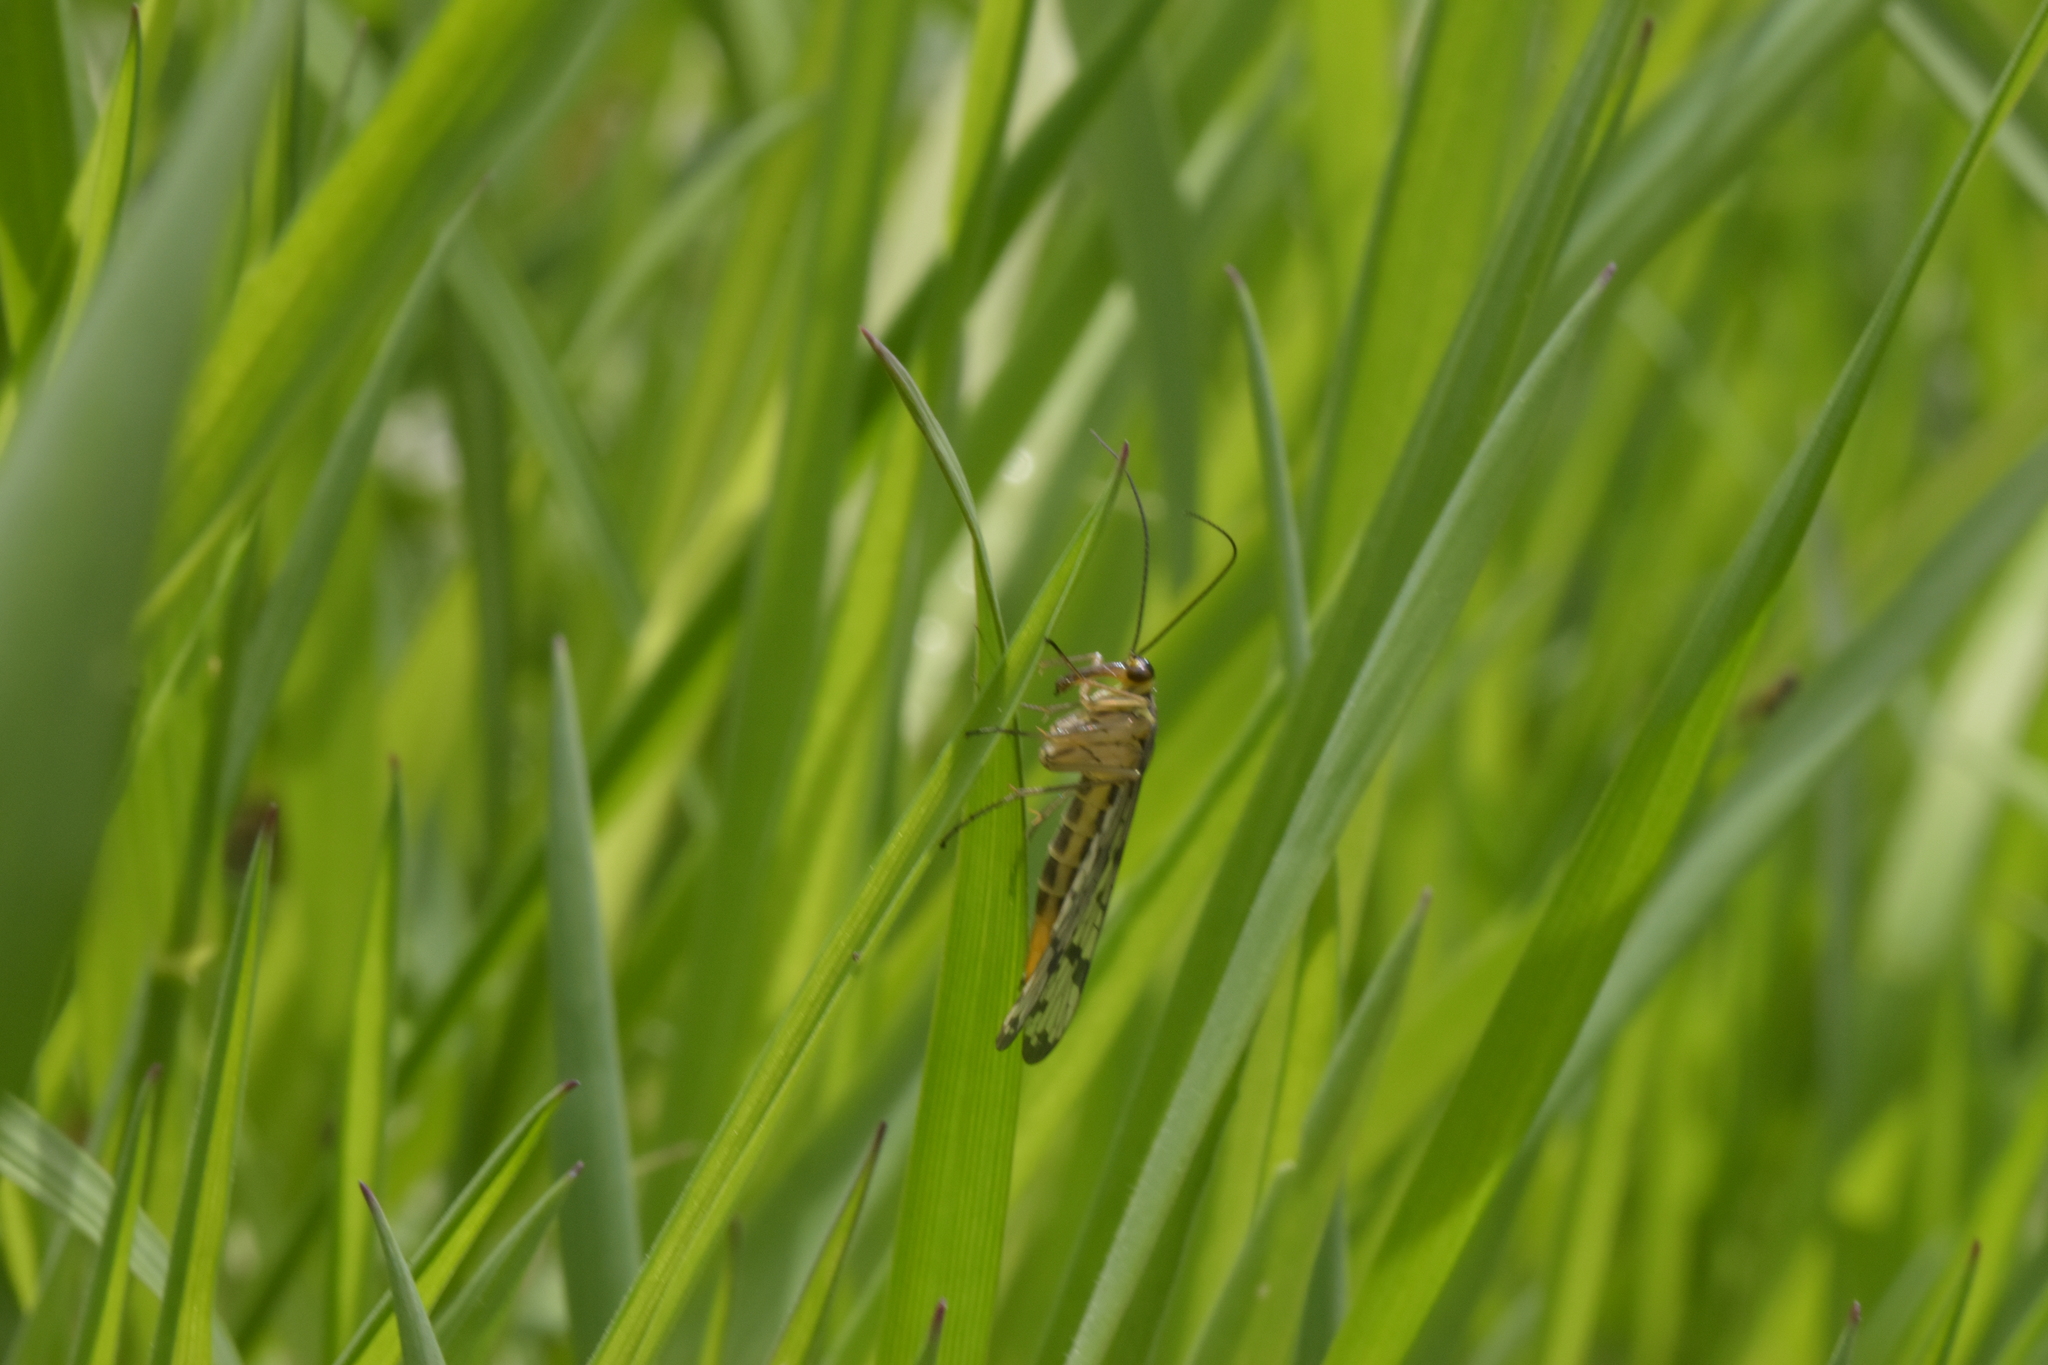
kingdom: Animalia
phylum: Arthropoda
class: Insecta
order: Mecoptera
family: Panorpidae
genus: Panorpa
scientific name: Panorpa germanica
